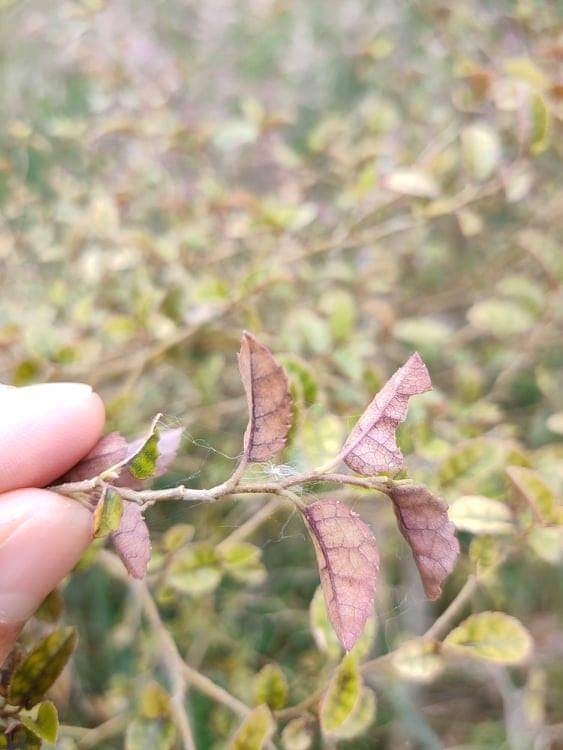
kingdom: Plantae
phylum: Tracheophyta
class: Magnoliopsida
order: Asterales
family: Rousseaceae
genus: Carpodetus
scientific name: Carpodetus serratus
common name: White mapau
